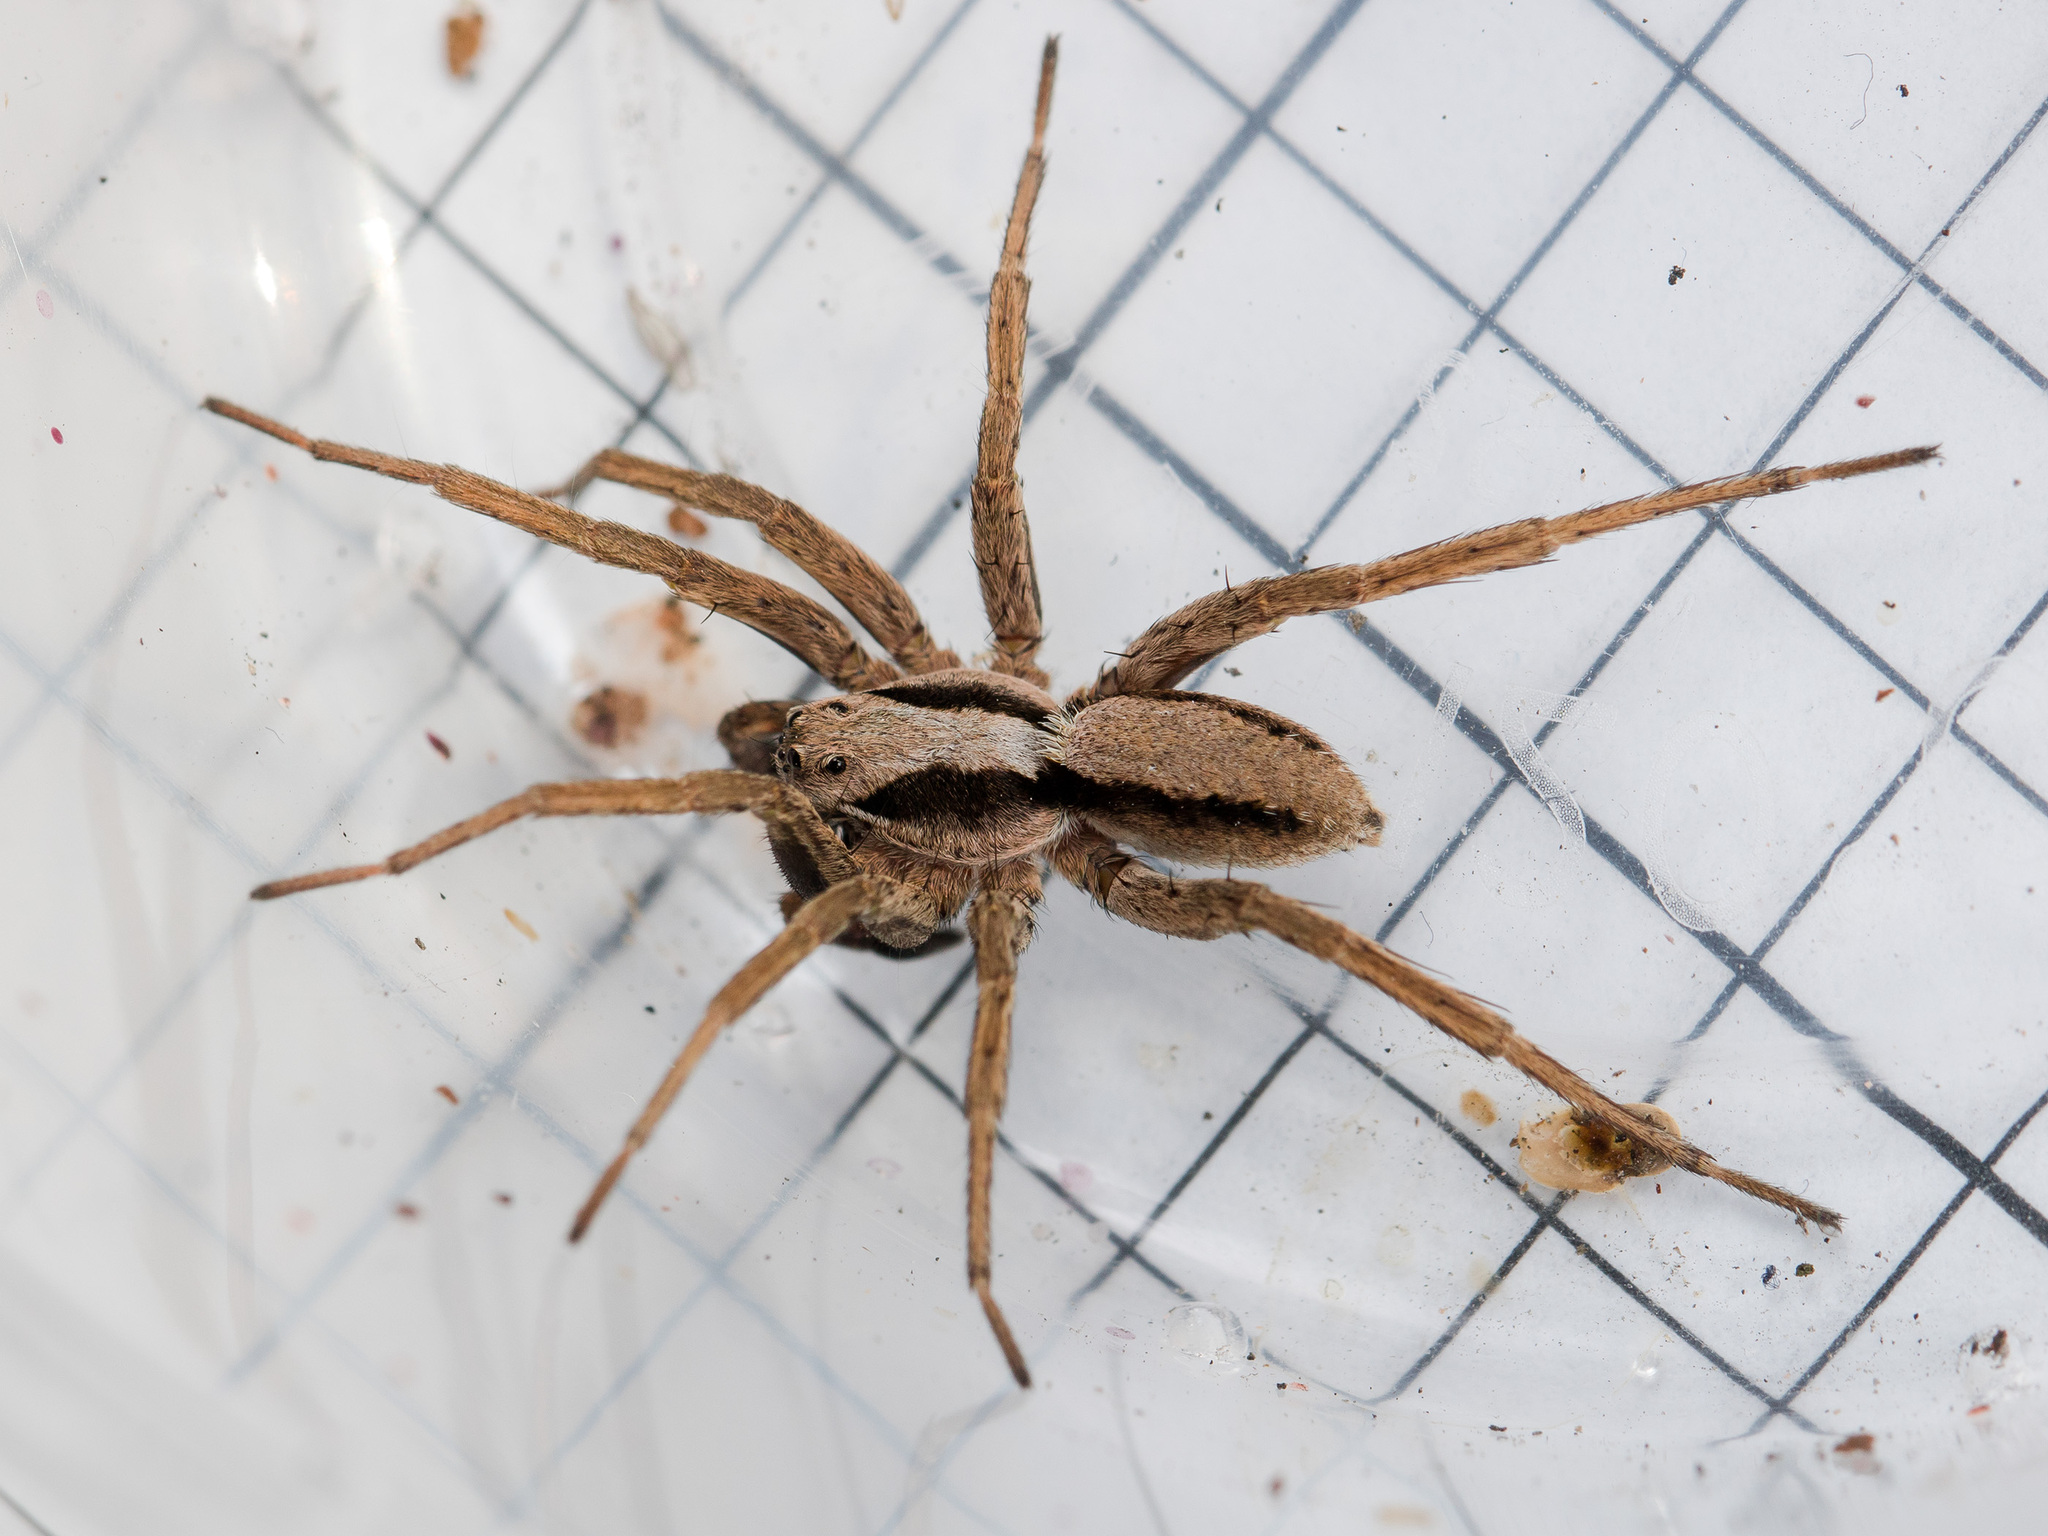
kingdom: Animalia
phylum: Arthropoda
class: Arachnida
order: Araneae
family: Lycosidae
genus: Alopecosa
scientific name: Alopecosa taeniopus
